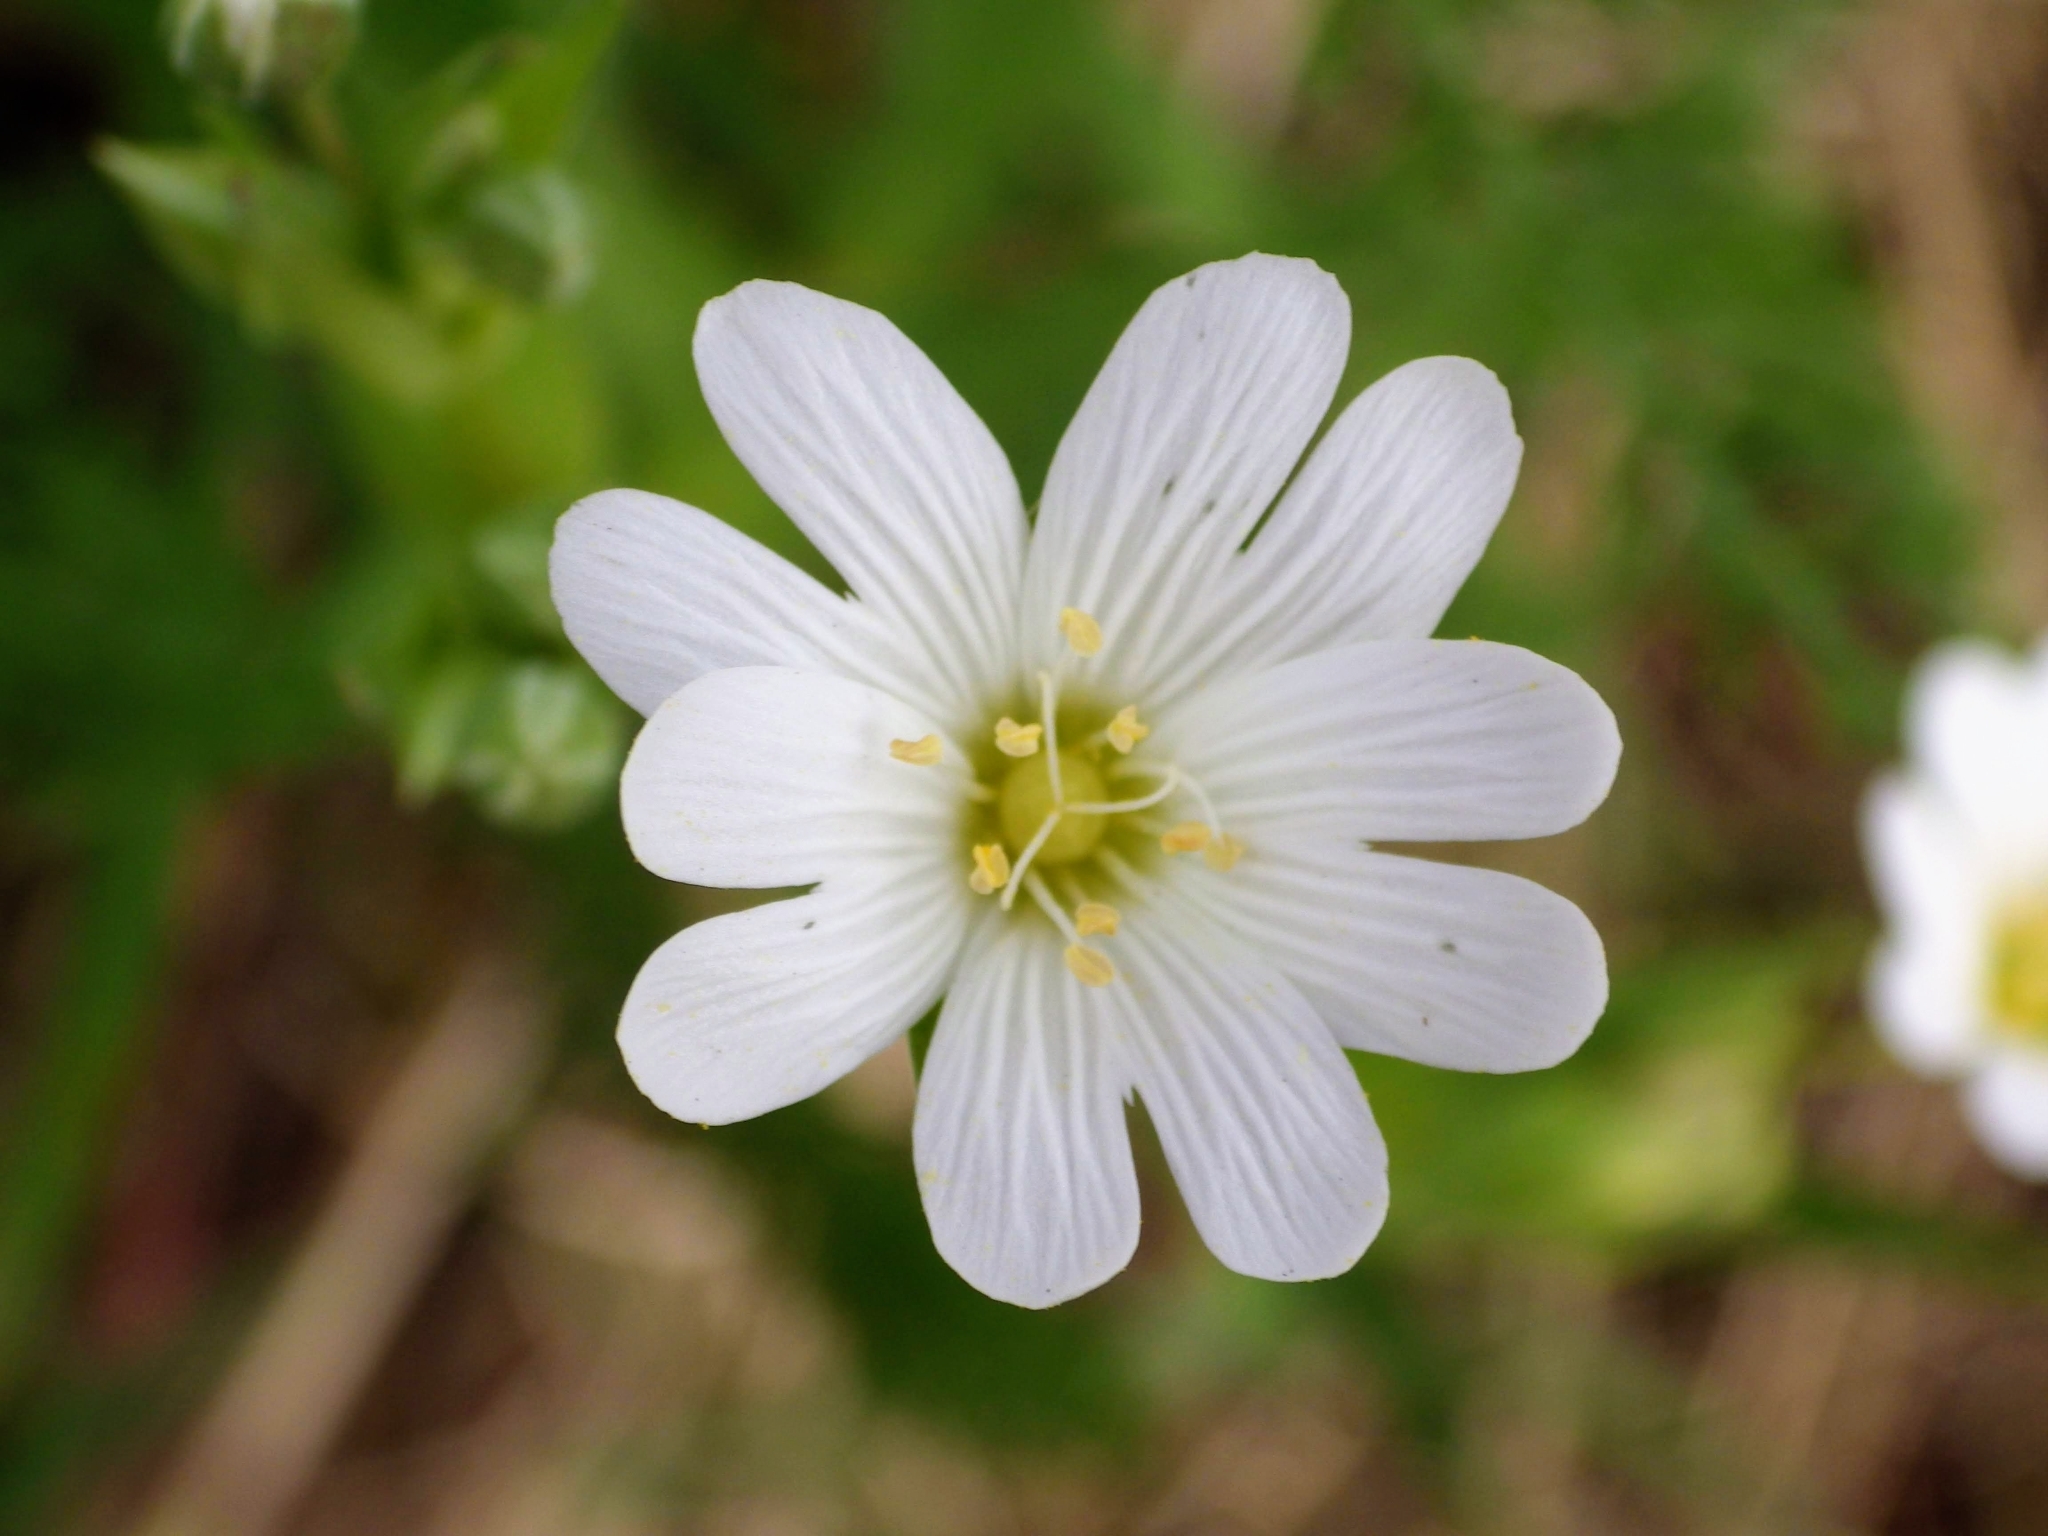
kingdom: Plantae
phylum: Tracheophyta
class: Magnoliopsida
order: Caryophyllales
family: Caryophyllaceae
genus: Rabelera
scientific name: Rabelera holostea
